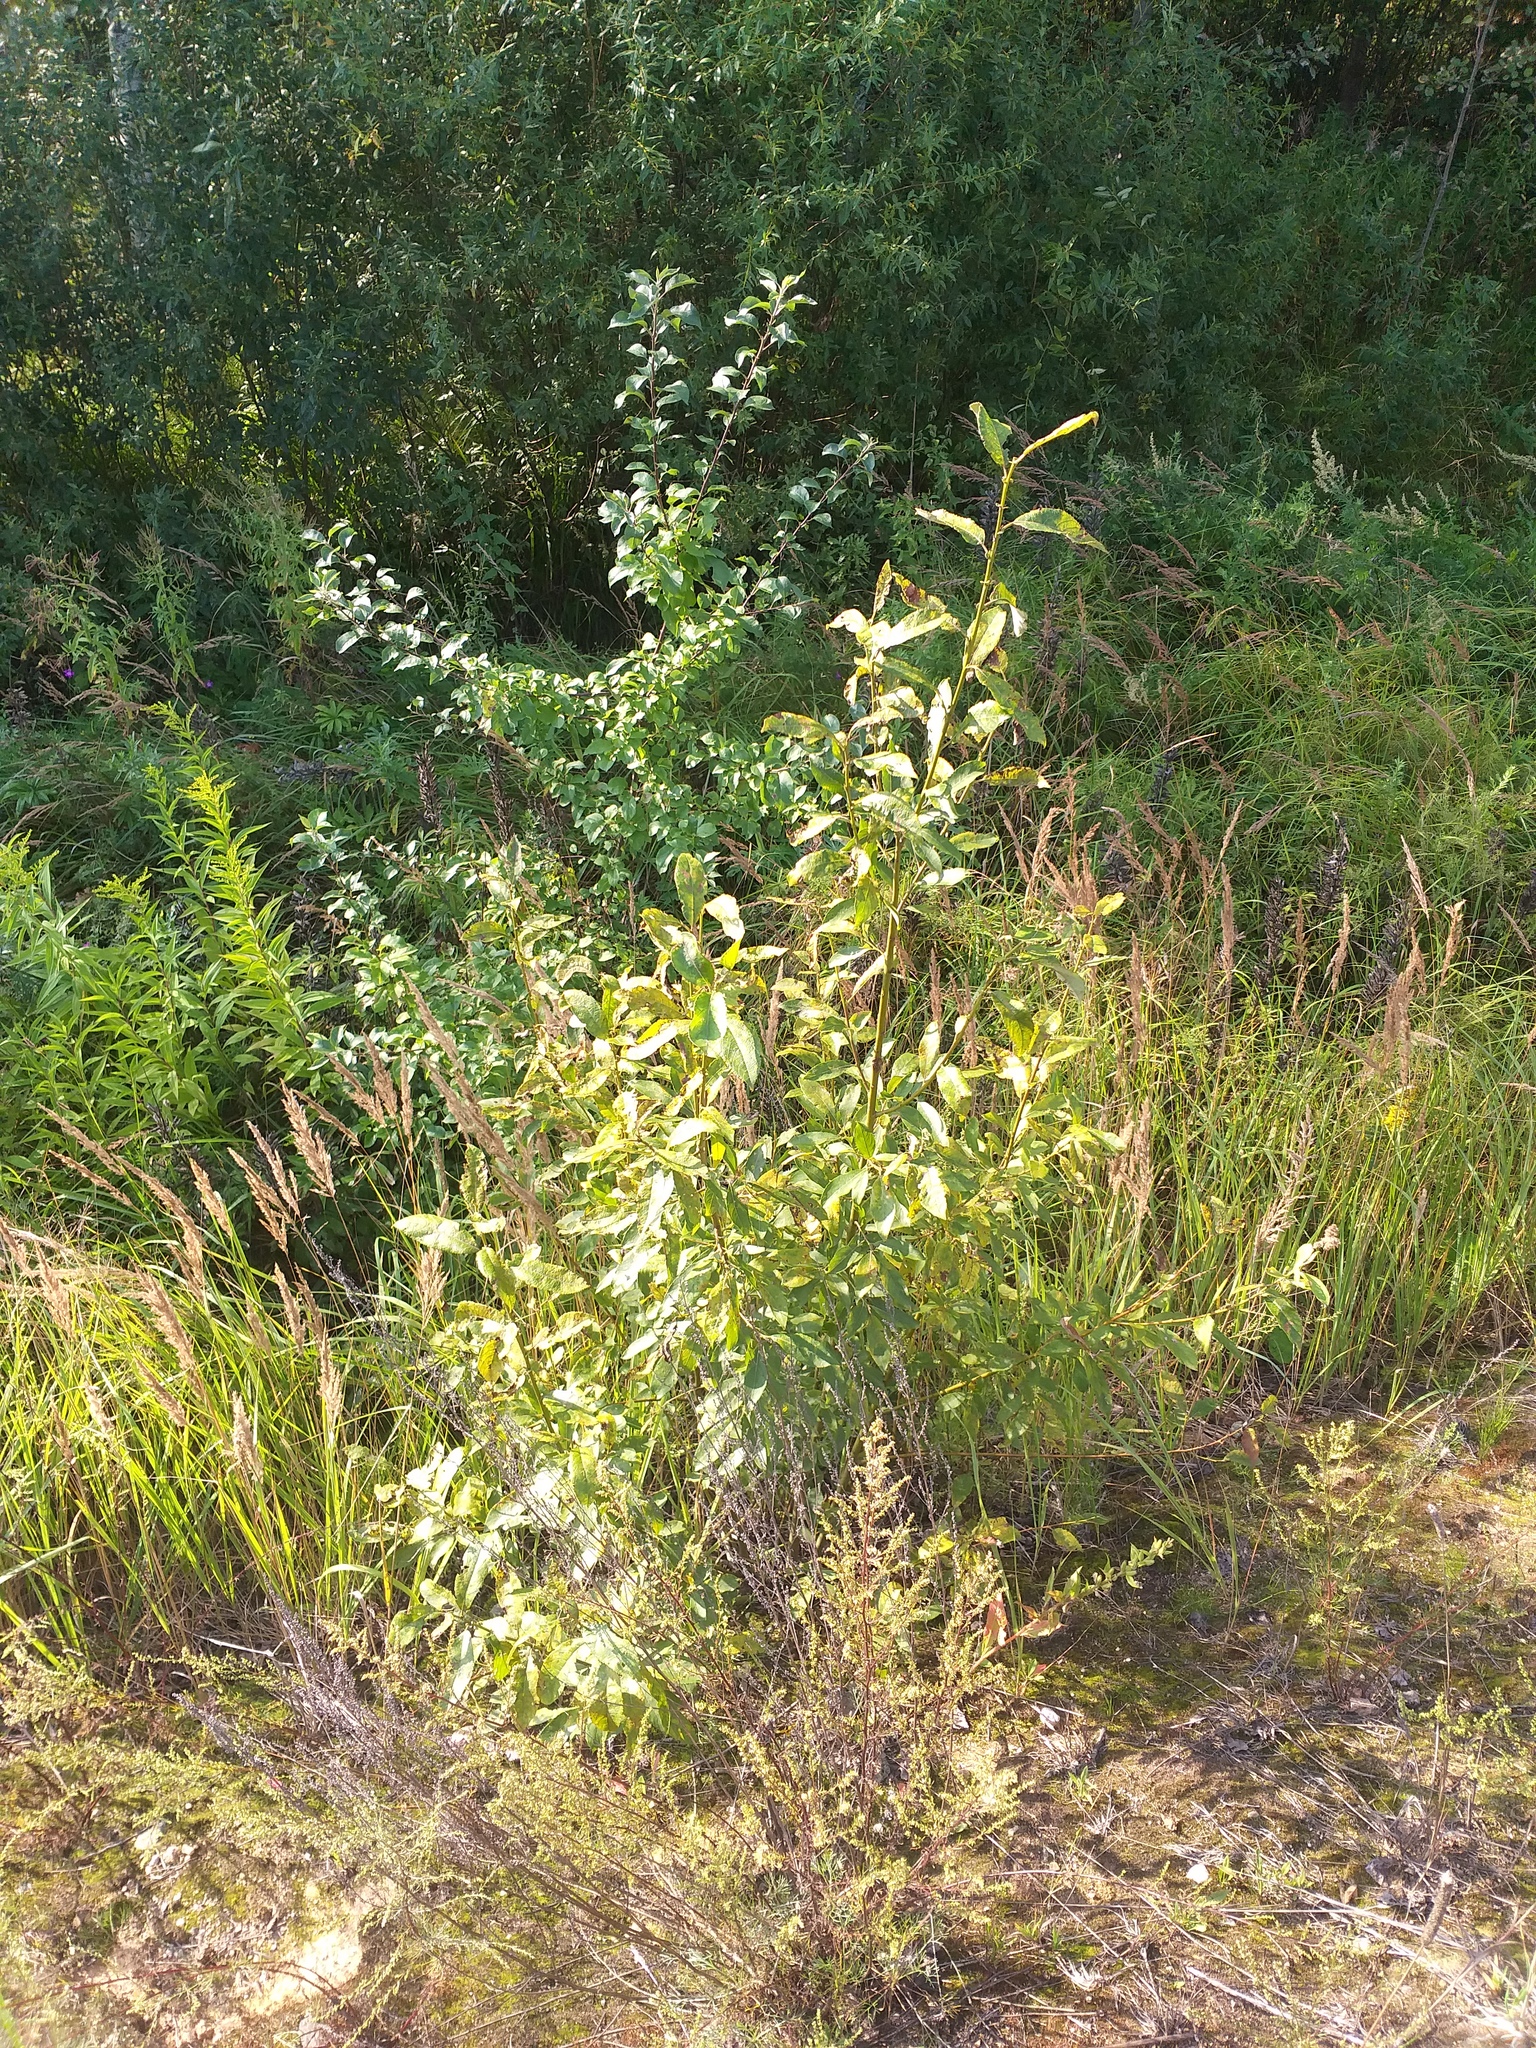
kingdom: Plantae
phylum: Tracheophyta
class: Magnoliopsida
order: Malpighiales
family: Salicaceae
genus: Salix
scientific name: Salix caprea
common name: Goat willow
